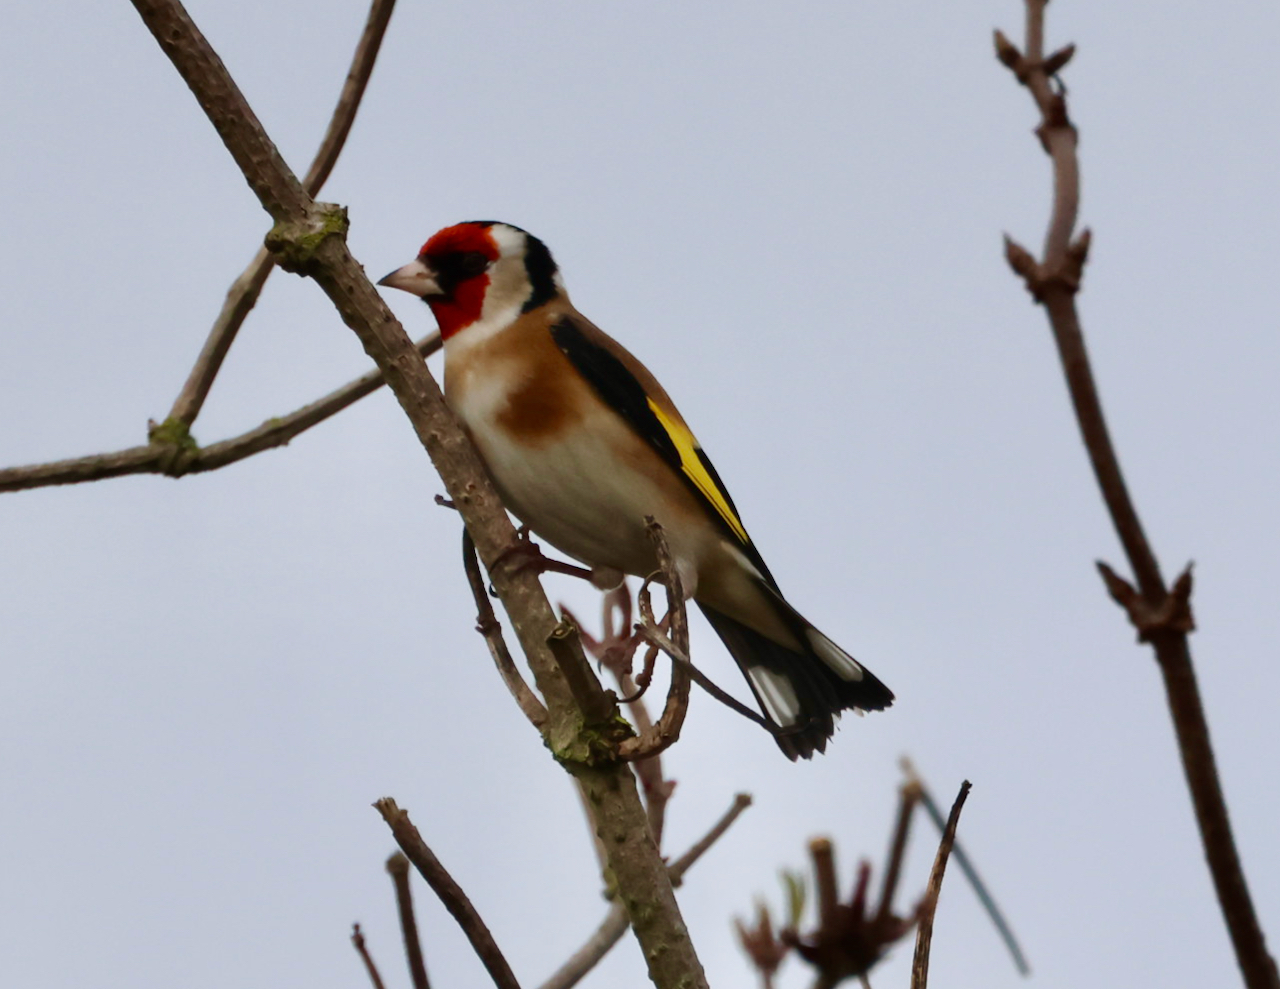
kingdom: Animalia
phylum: Chordata
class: Aves
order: Passeriformes
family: Fringillidae
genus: Carduelis
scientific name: Carduelis carduelis
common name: European goldfinch
